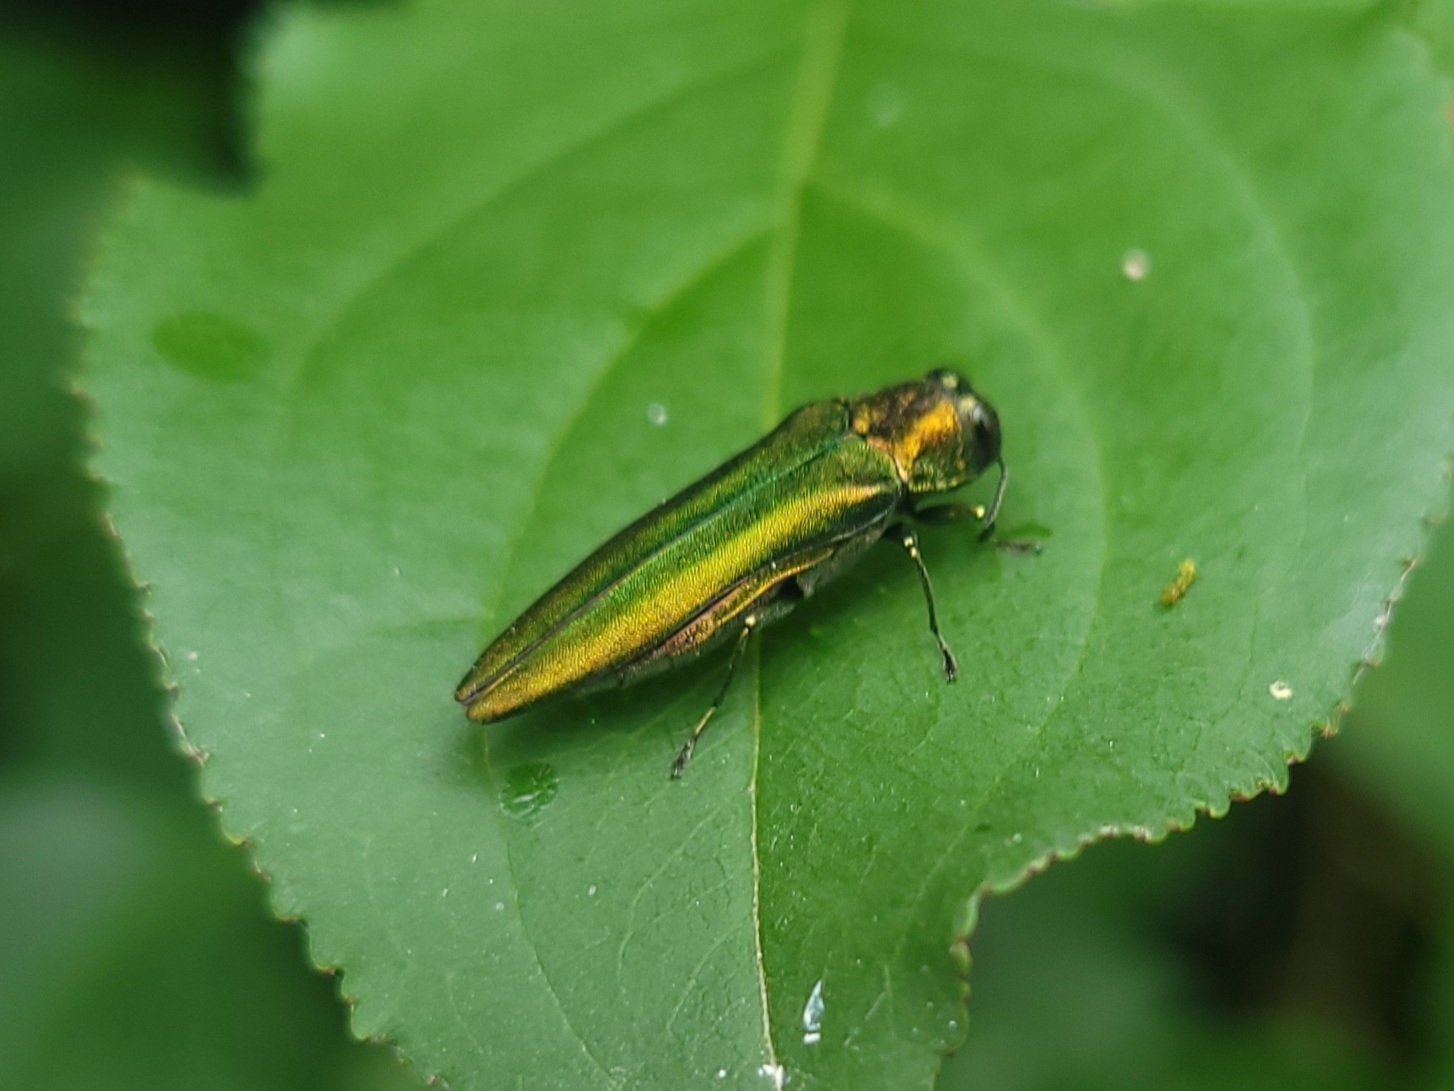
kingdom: Animalia
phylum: Arthropoda
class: Insecta
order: Coleoptera
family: Buprestidae
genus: Agrilus
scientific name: Agrilus planipennis
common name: Emerald ash borer
